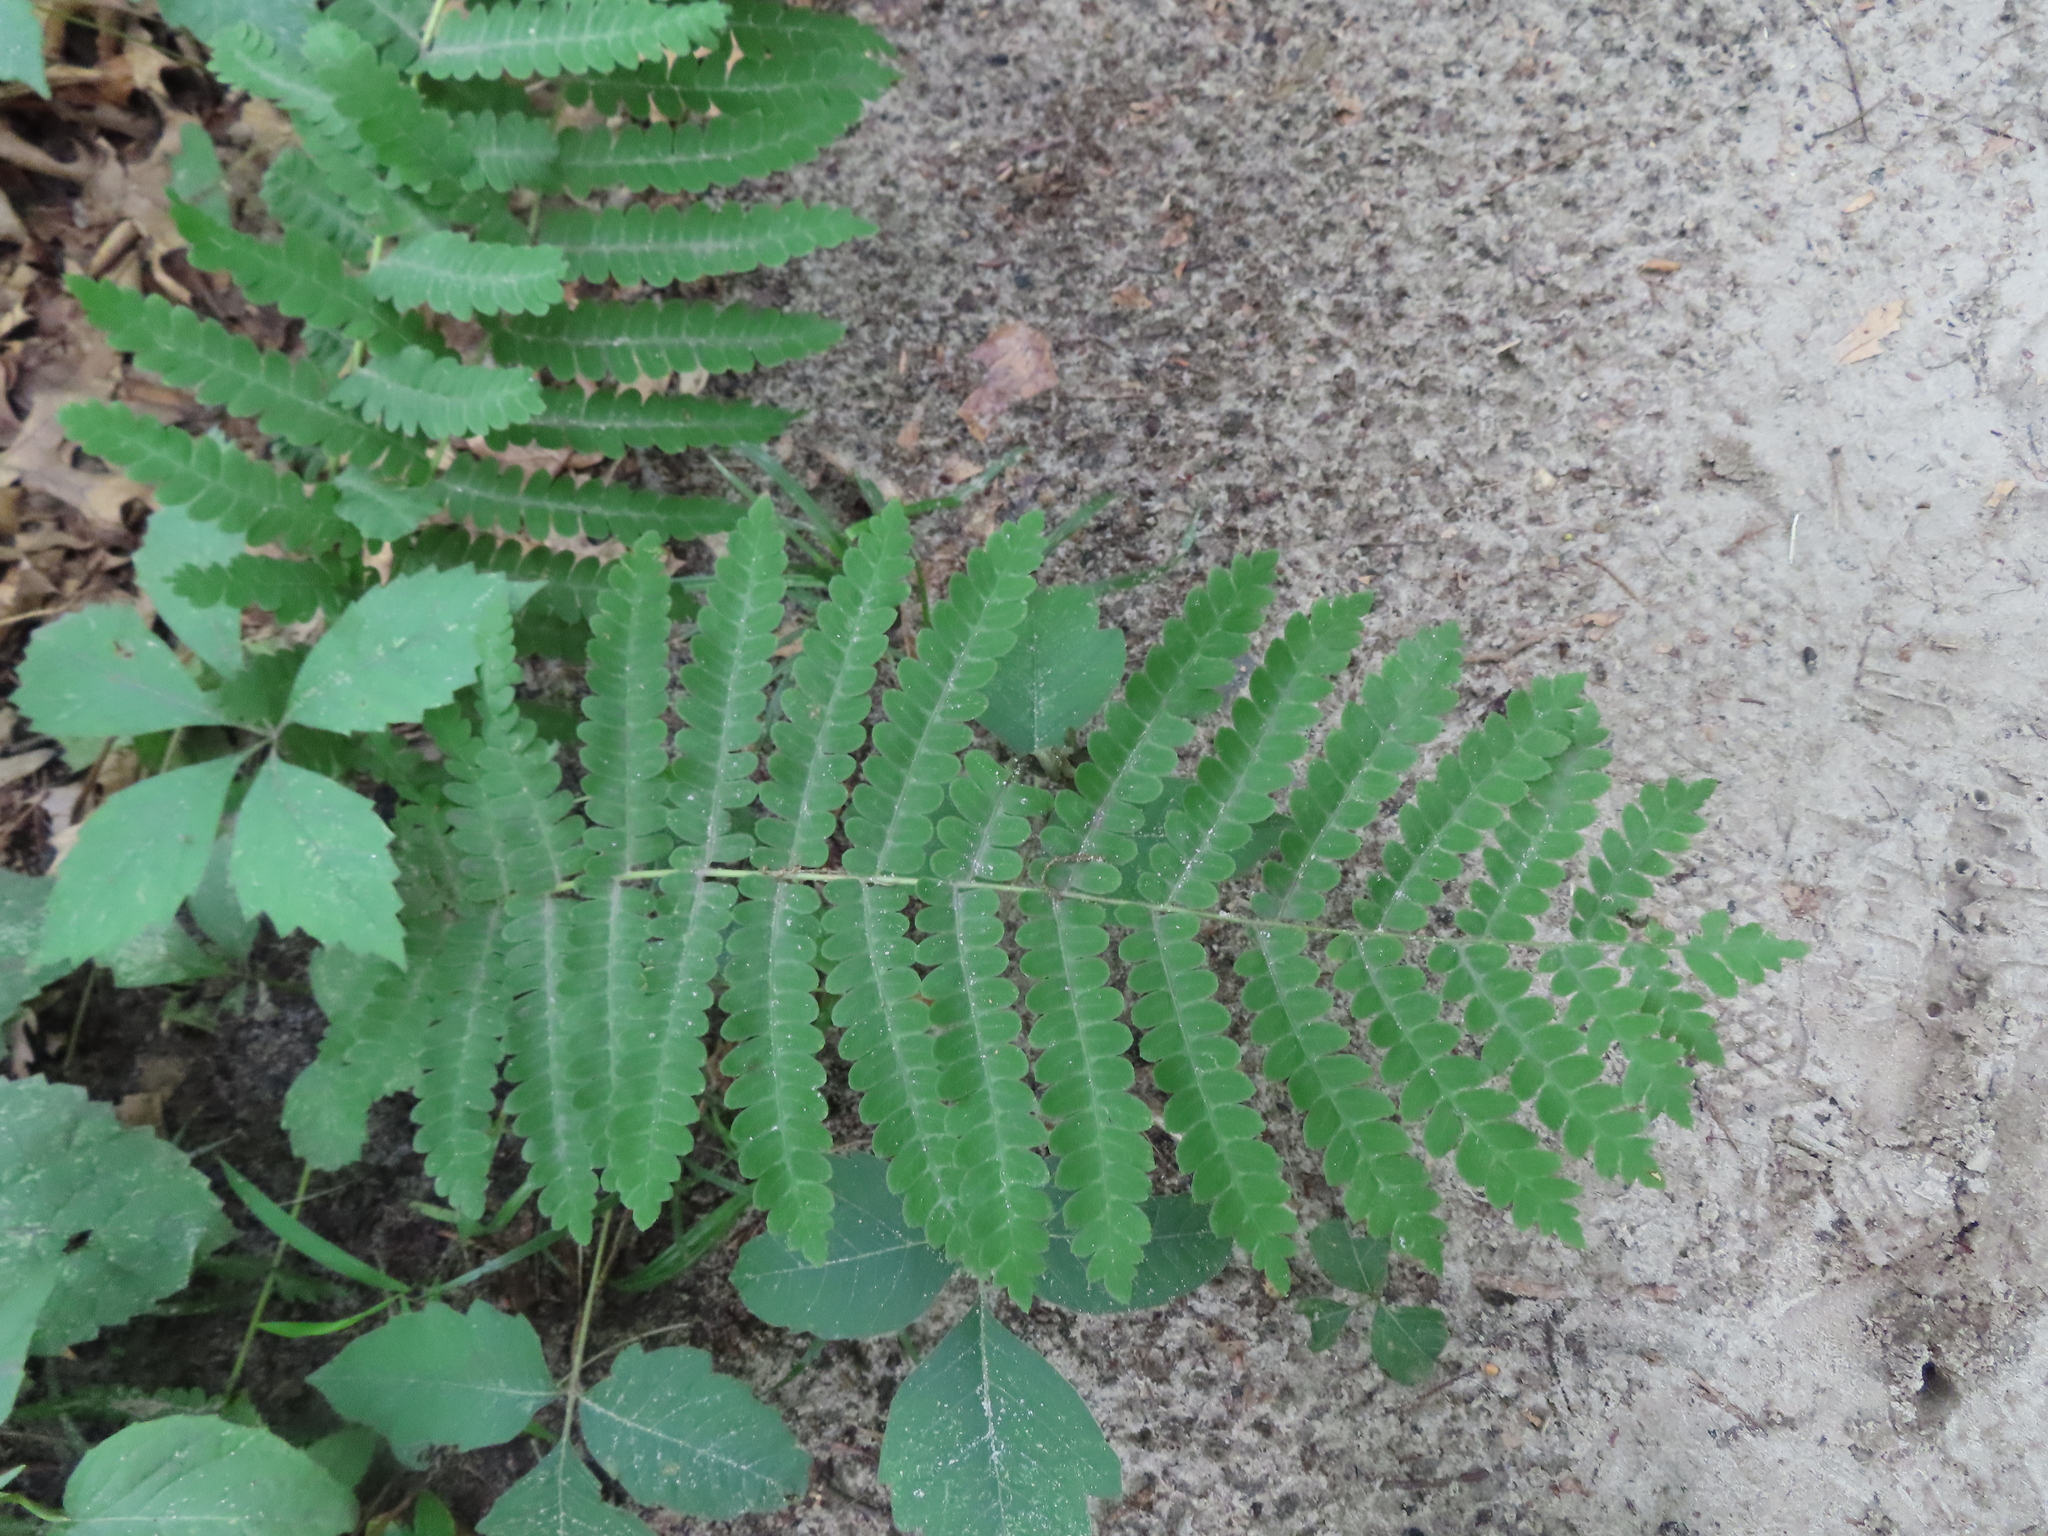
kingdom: Plantae
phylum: Tracheophyta
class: Polypodiopsida
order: Osmundales
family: Osmundaceae
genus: Claytosmunda
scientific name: Claytosmunda claytoniana
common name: Clayton's fern
